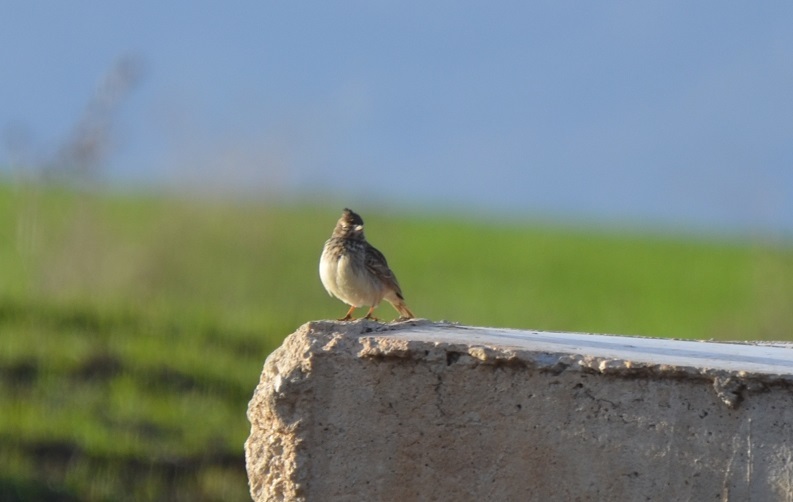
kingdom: Animalia
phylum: Chordata
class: Aves
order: Passeriformes
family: Alaudidae
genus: Galerida
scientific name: Galerida theklae
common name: Thekla lark
